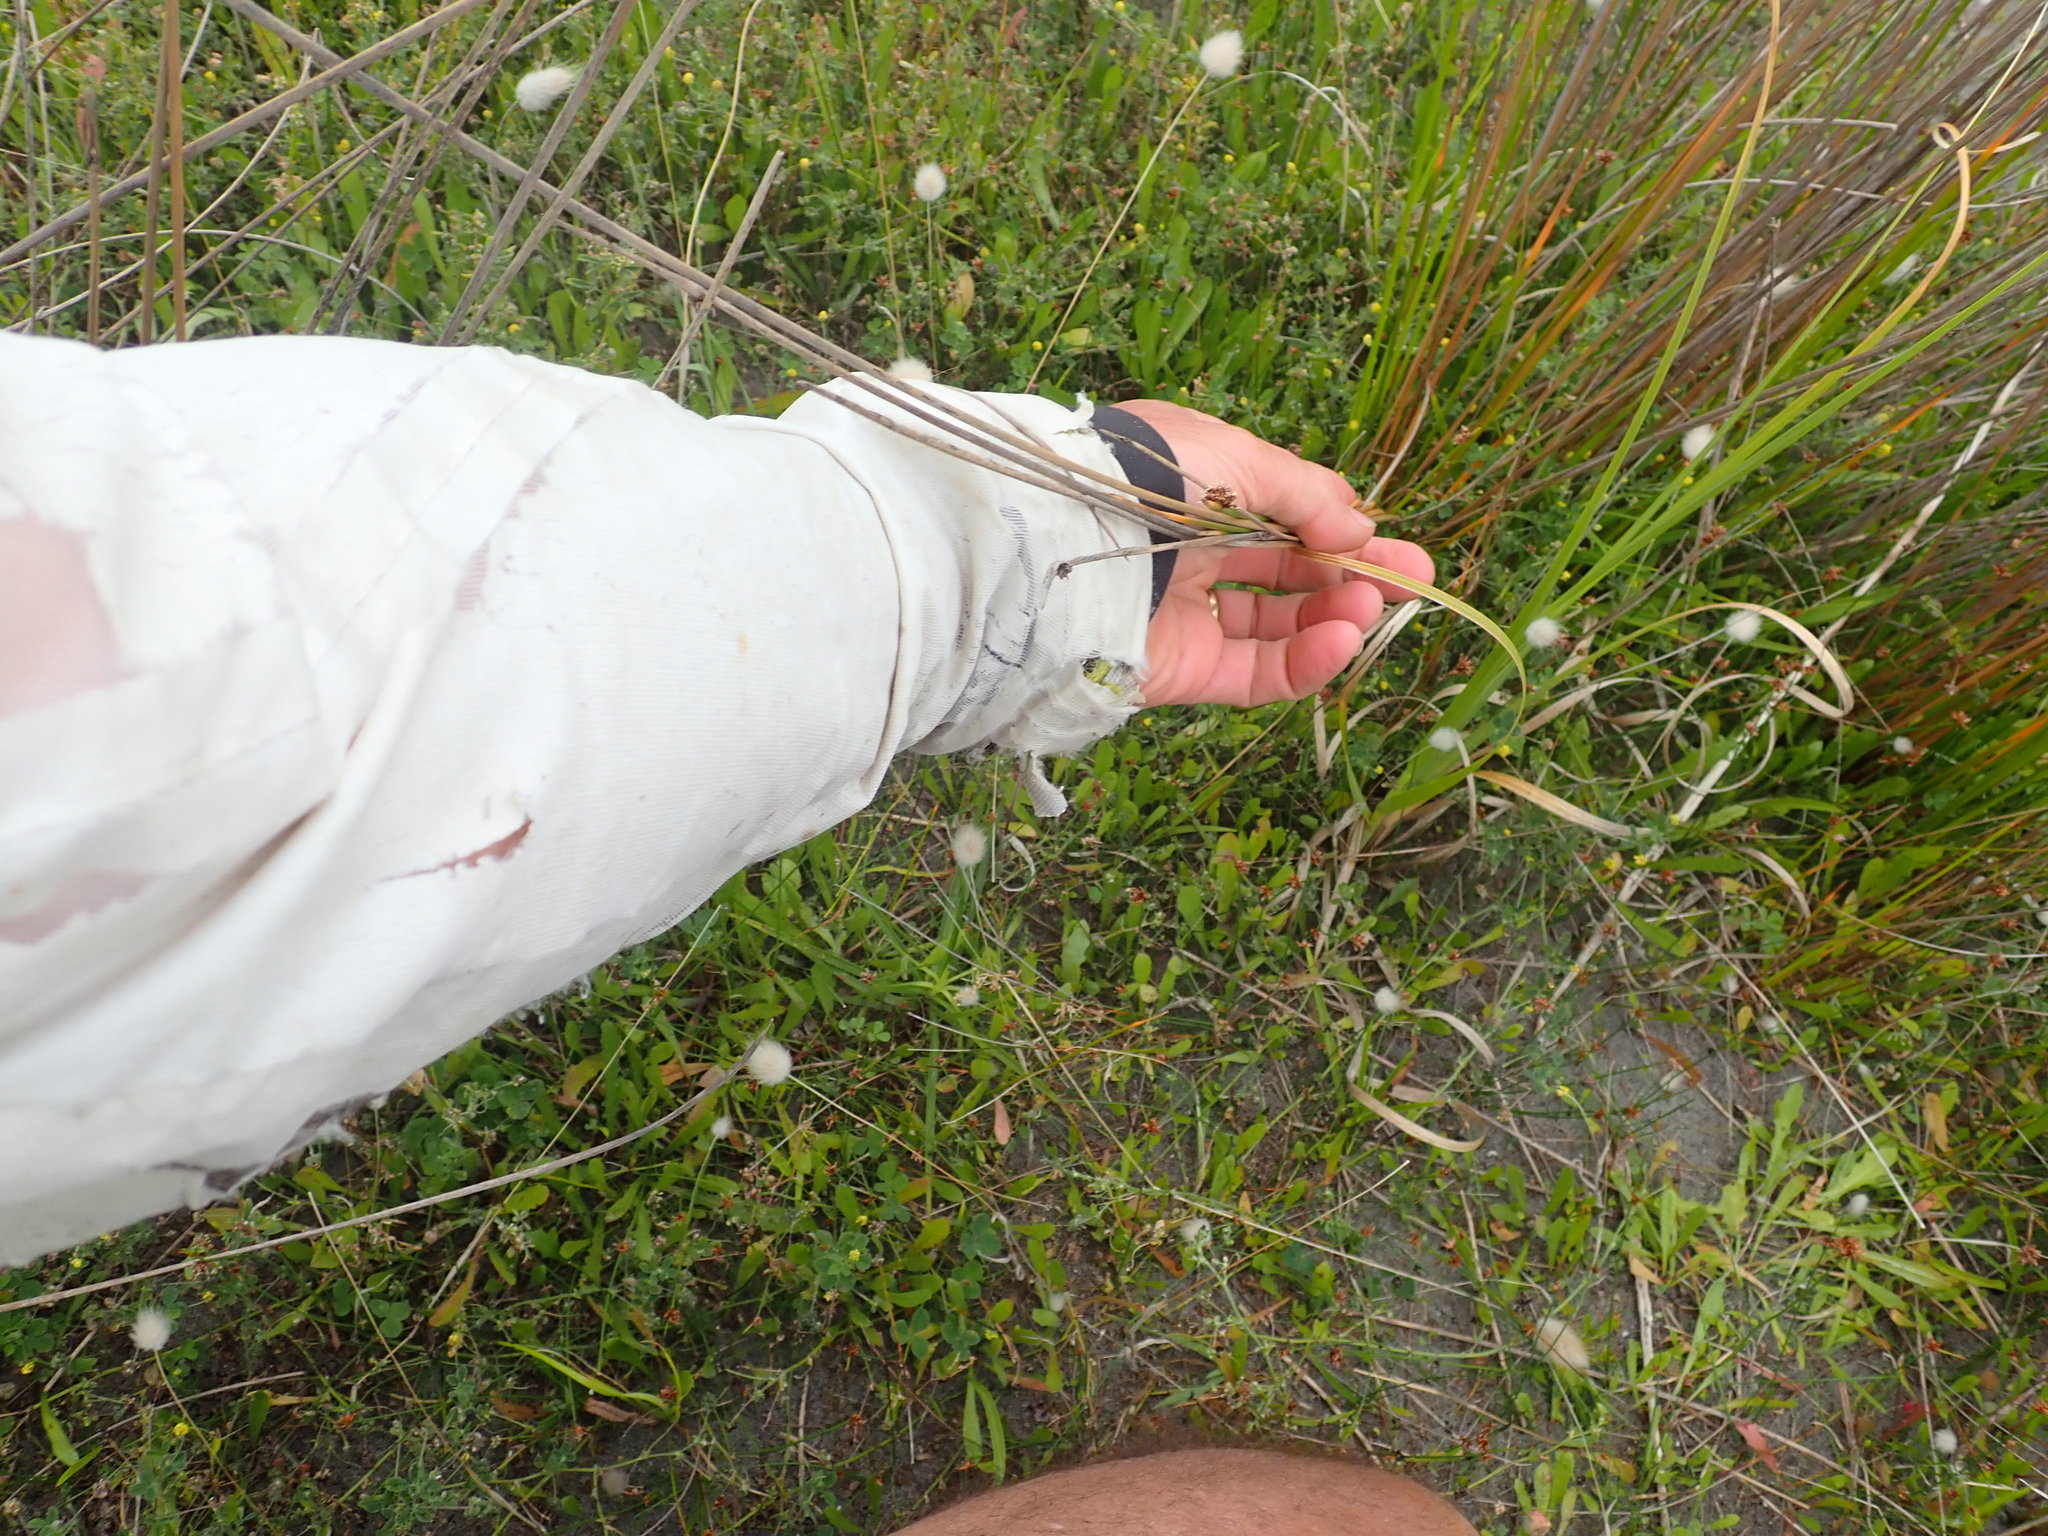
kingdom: Plantae
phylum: Tracheophyta
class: Liliopsida
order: Poales
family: Cyperaceae
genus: Ficinia
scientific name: Ficinia nodosa
